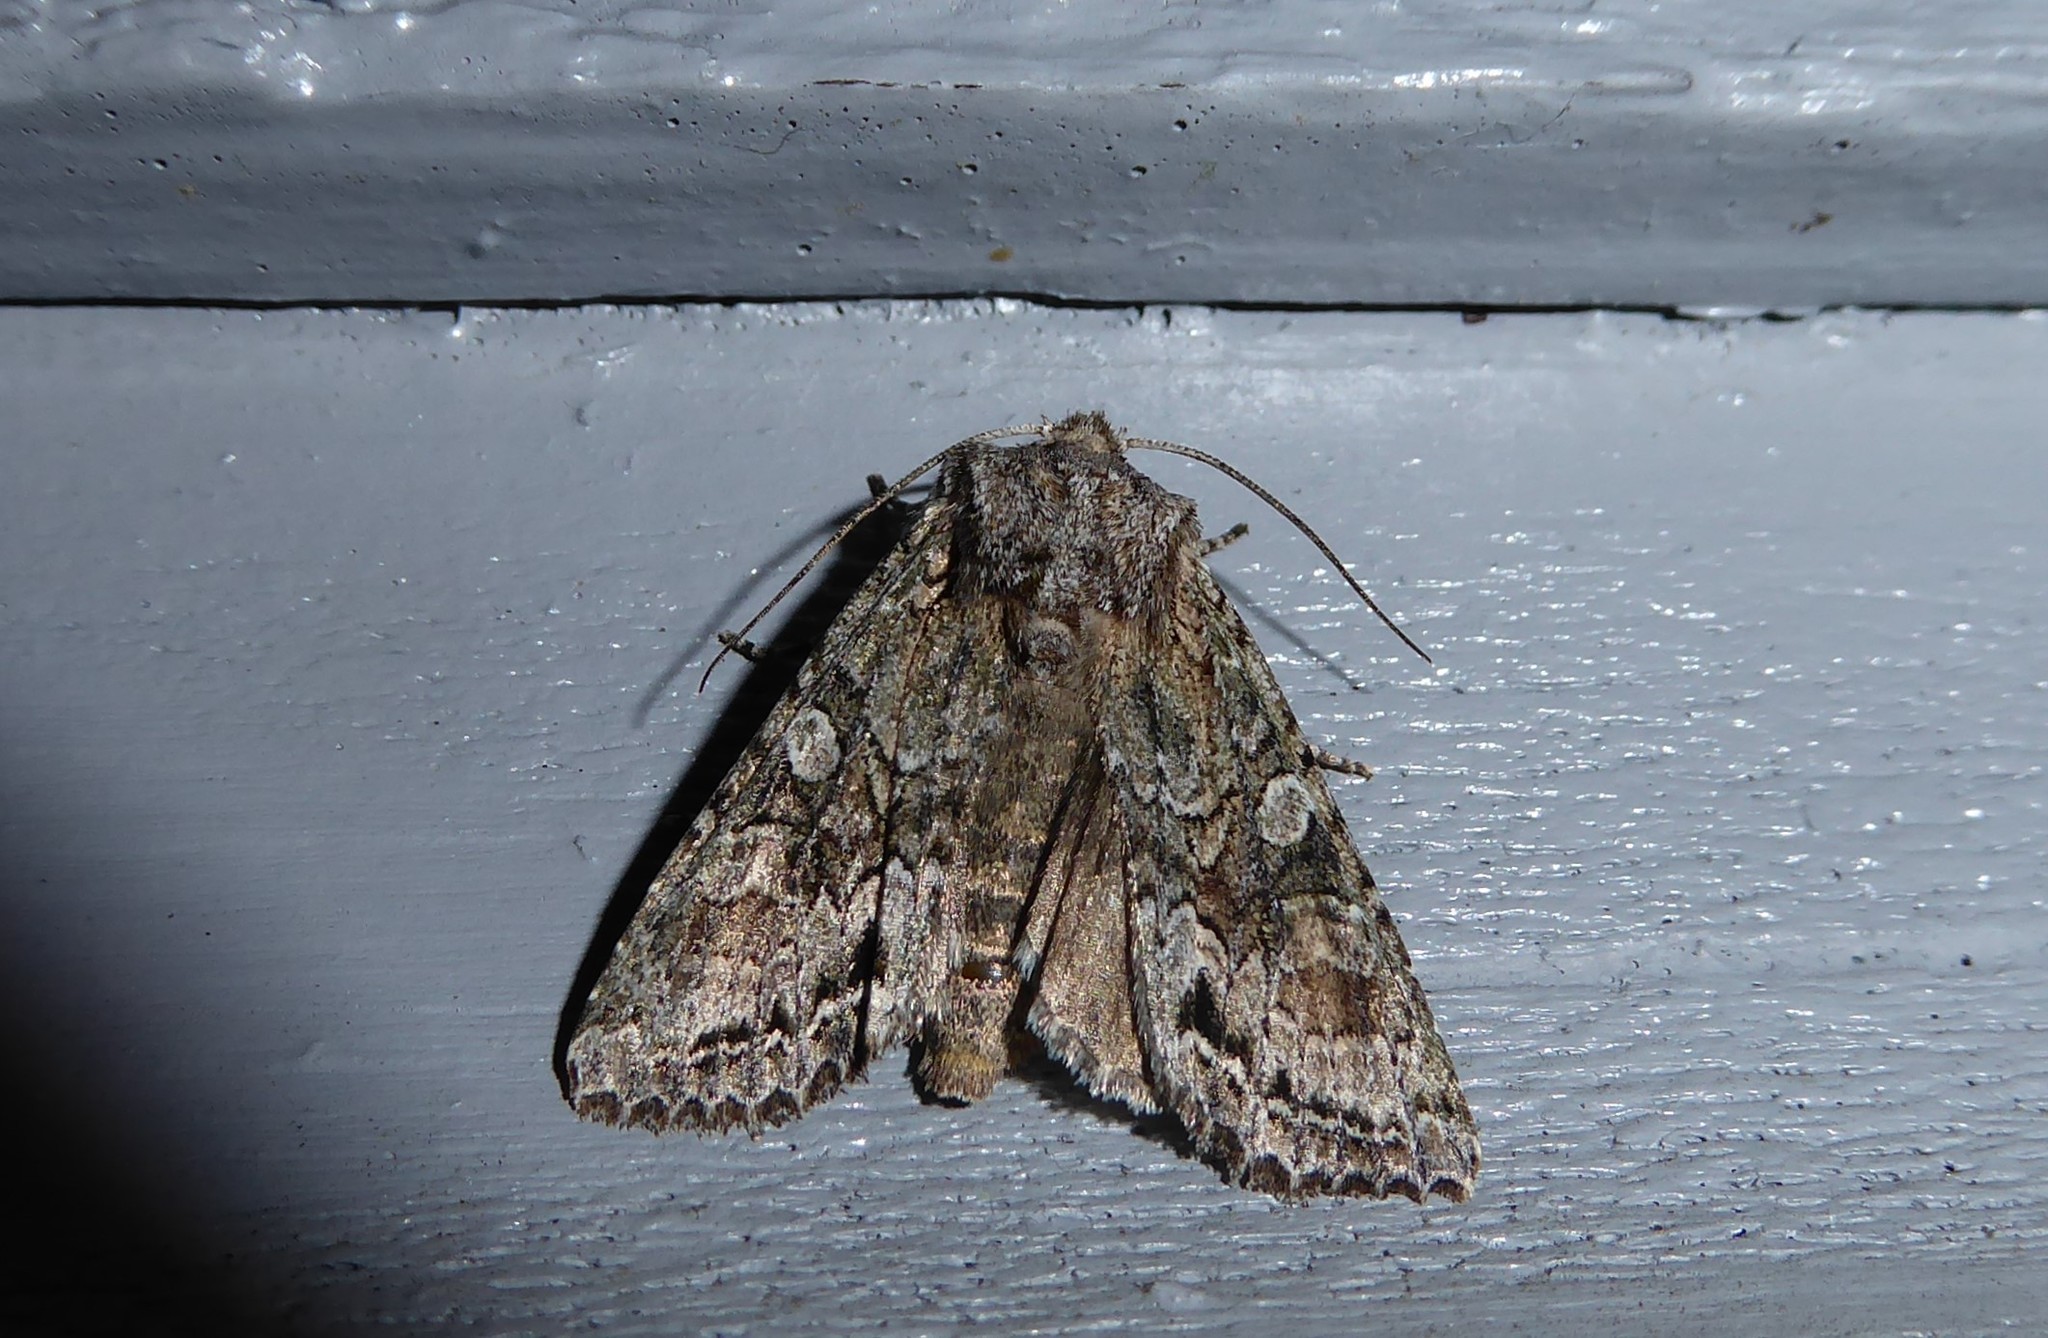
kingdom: Animalia
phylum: Arthropoda
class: Insecta
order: Lepidoptera
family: Noctuidae
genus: Ichneutica
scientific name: Ichneutica mutans
